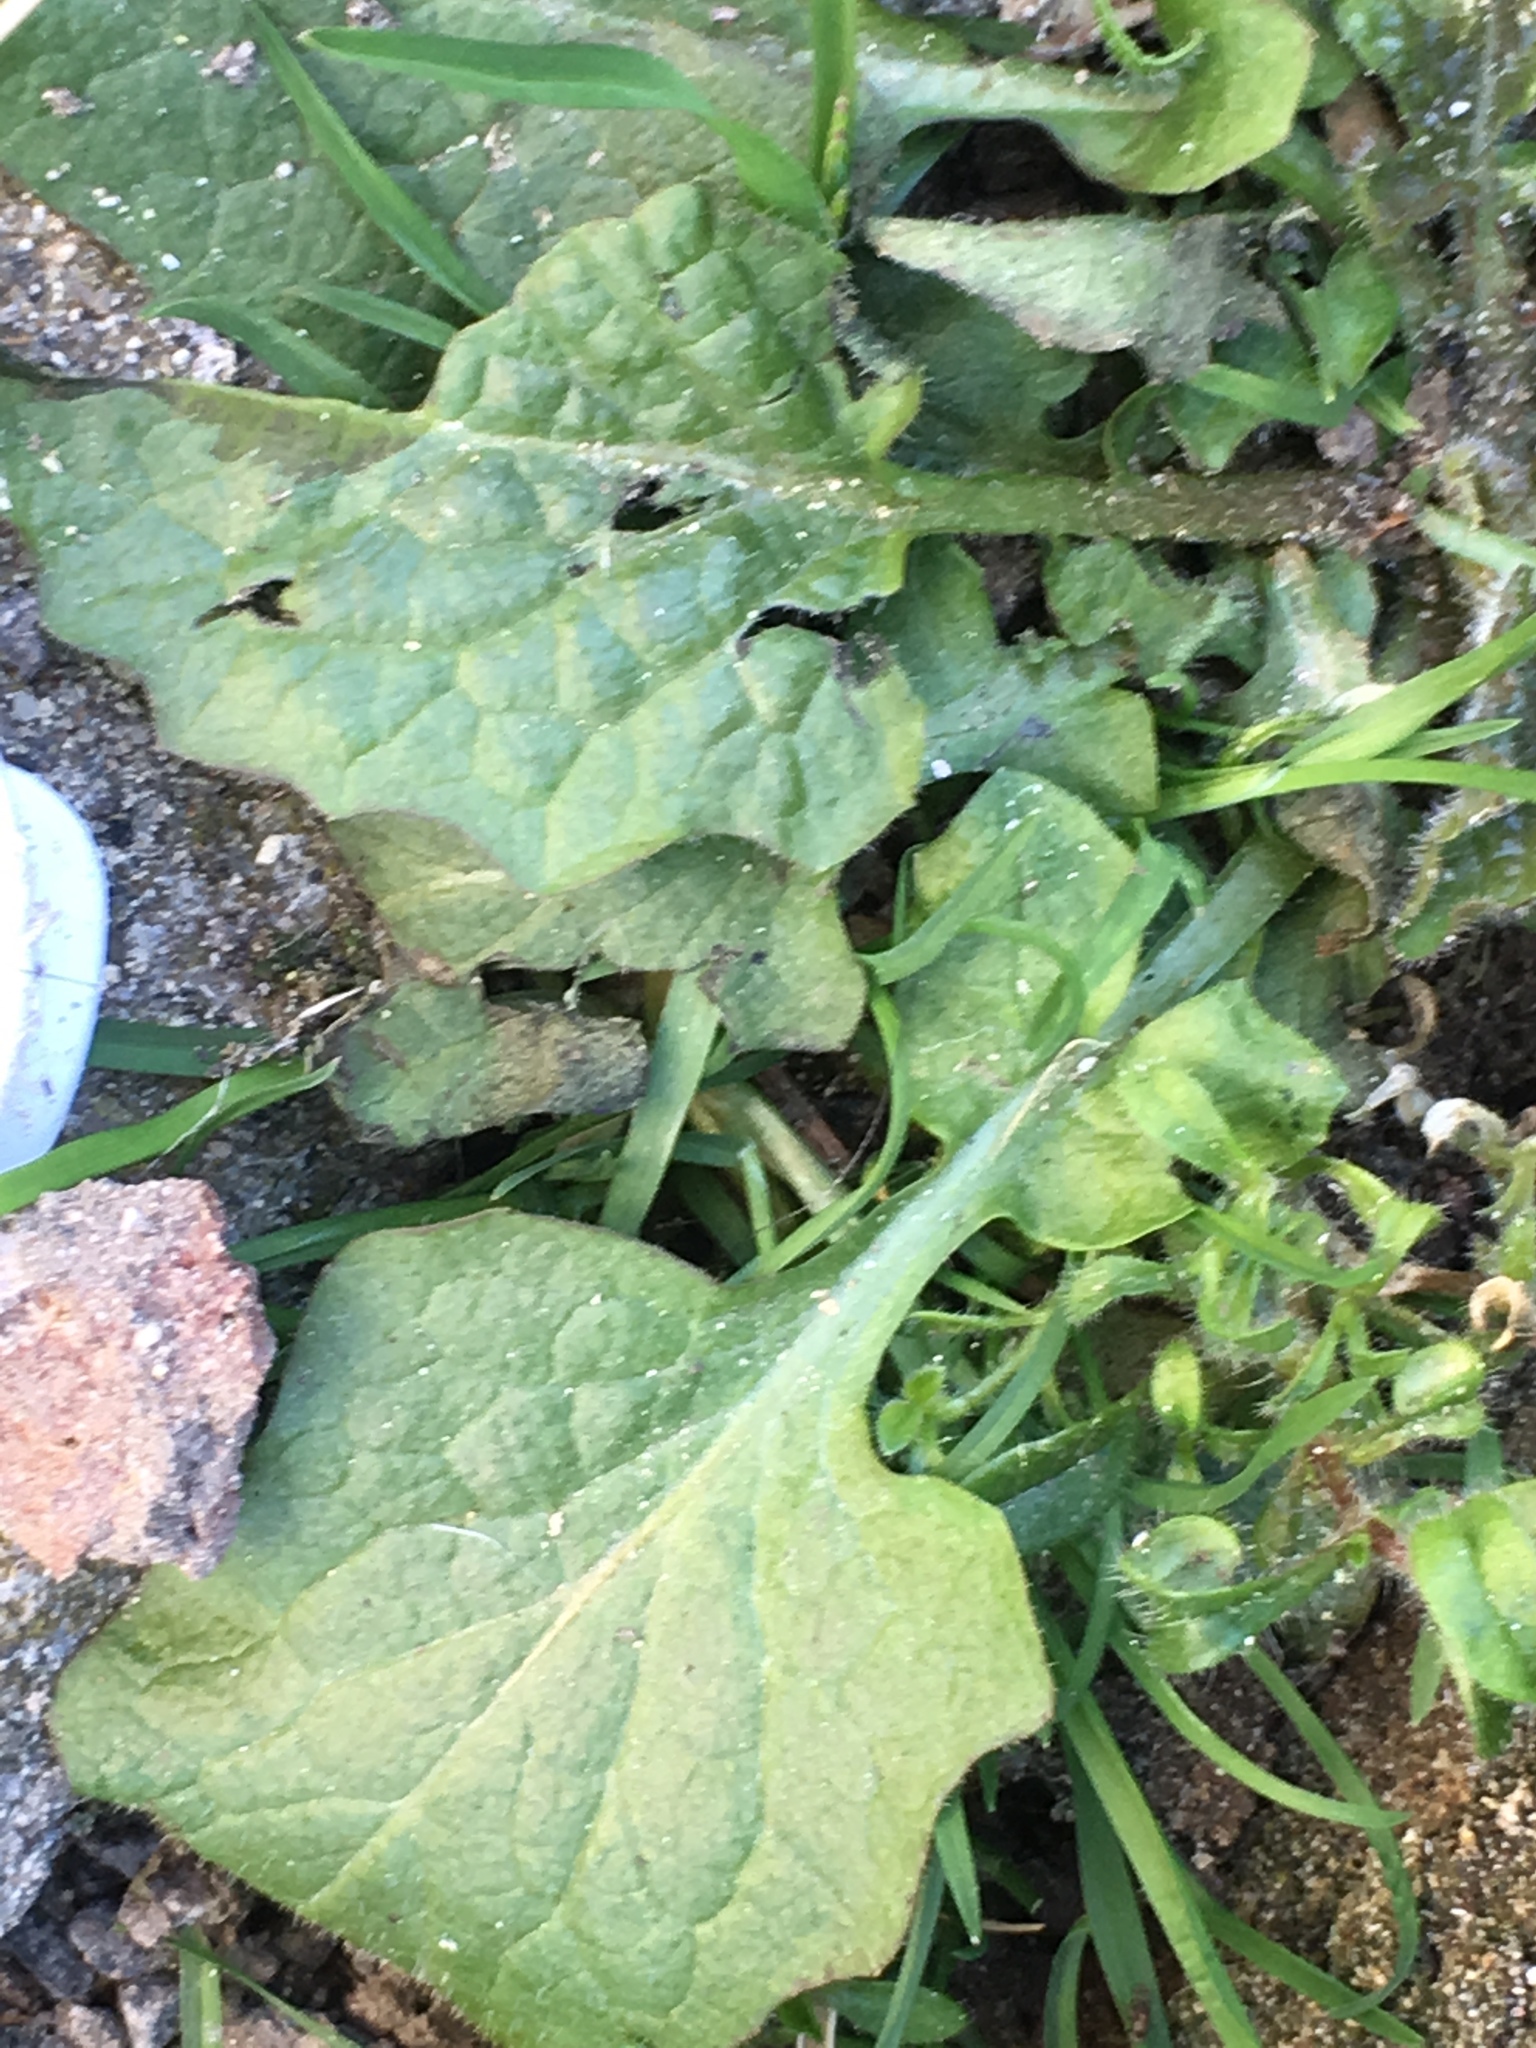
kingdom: Plantae
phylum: Tracheophyta
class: Magnoliopsida
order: Asterales
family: Asteraceae
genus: Lapsana
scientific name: Lapsana communis
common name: Nipplewort
